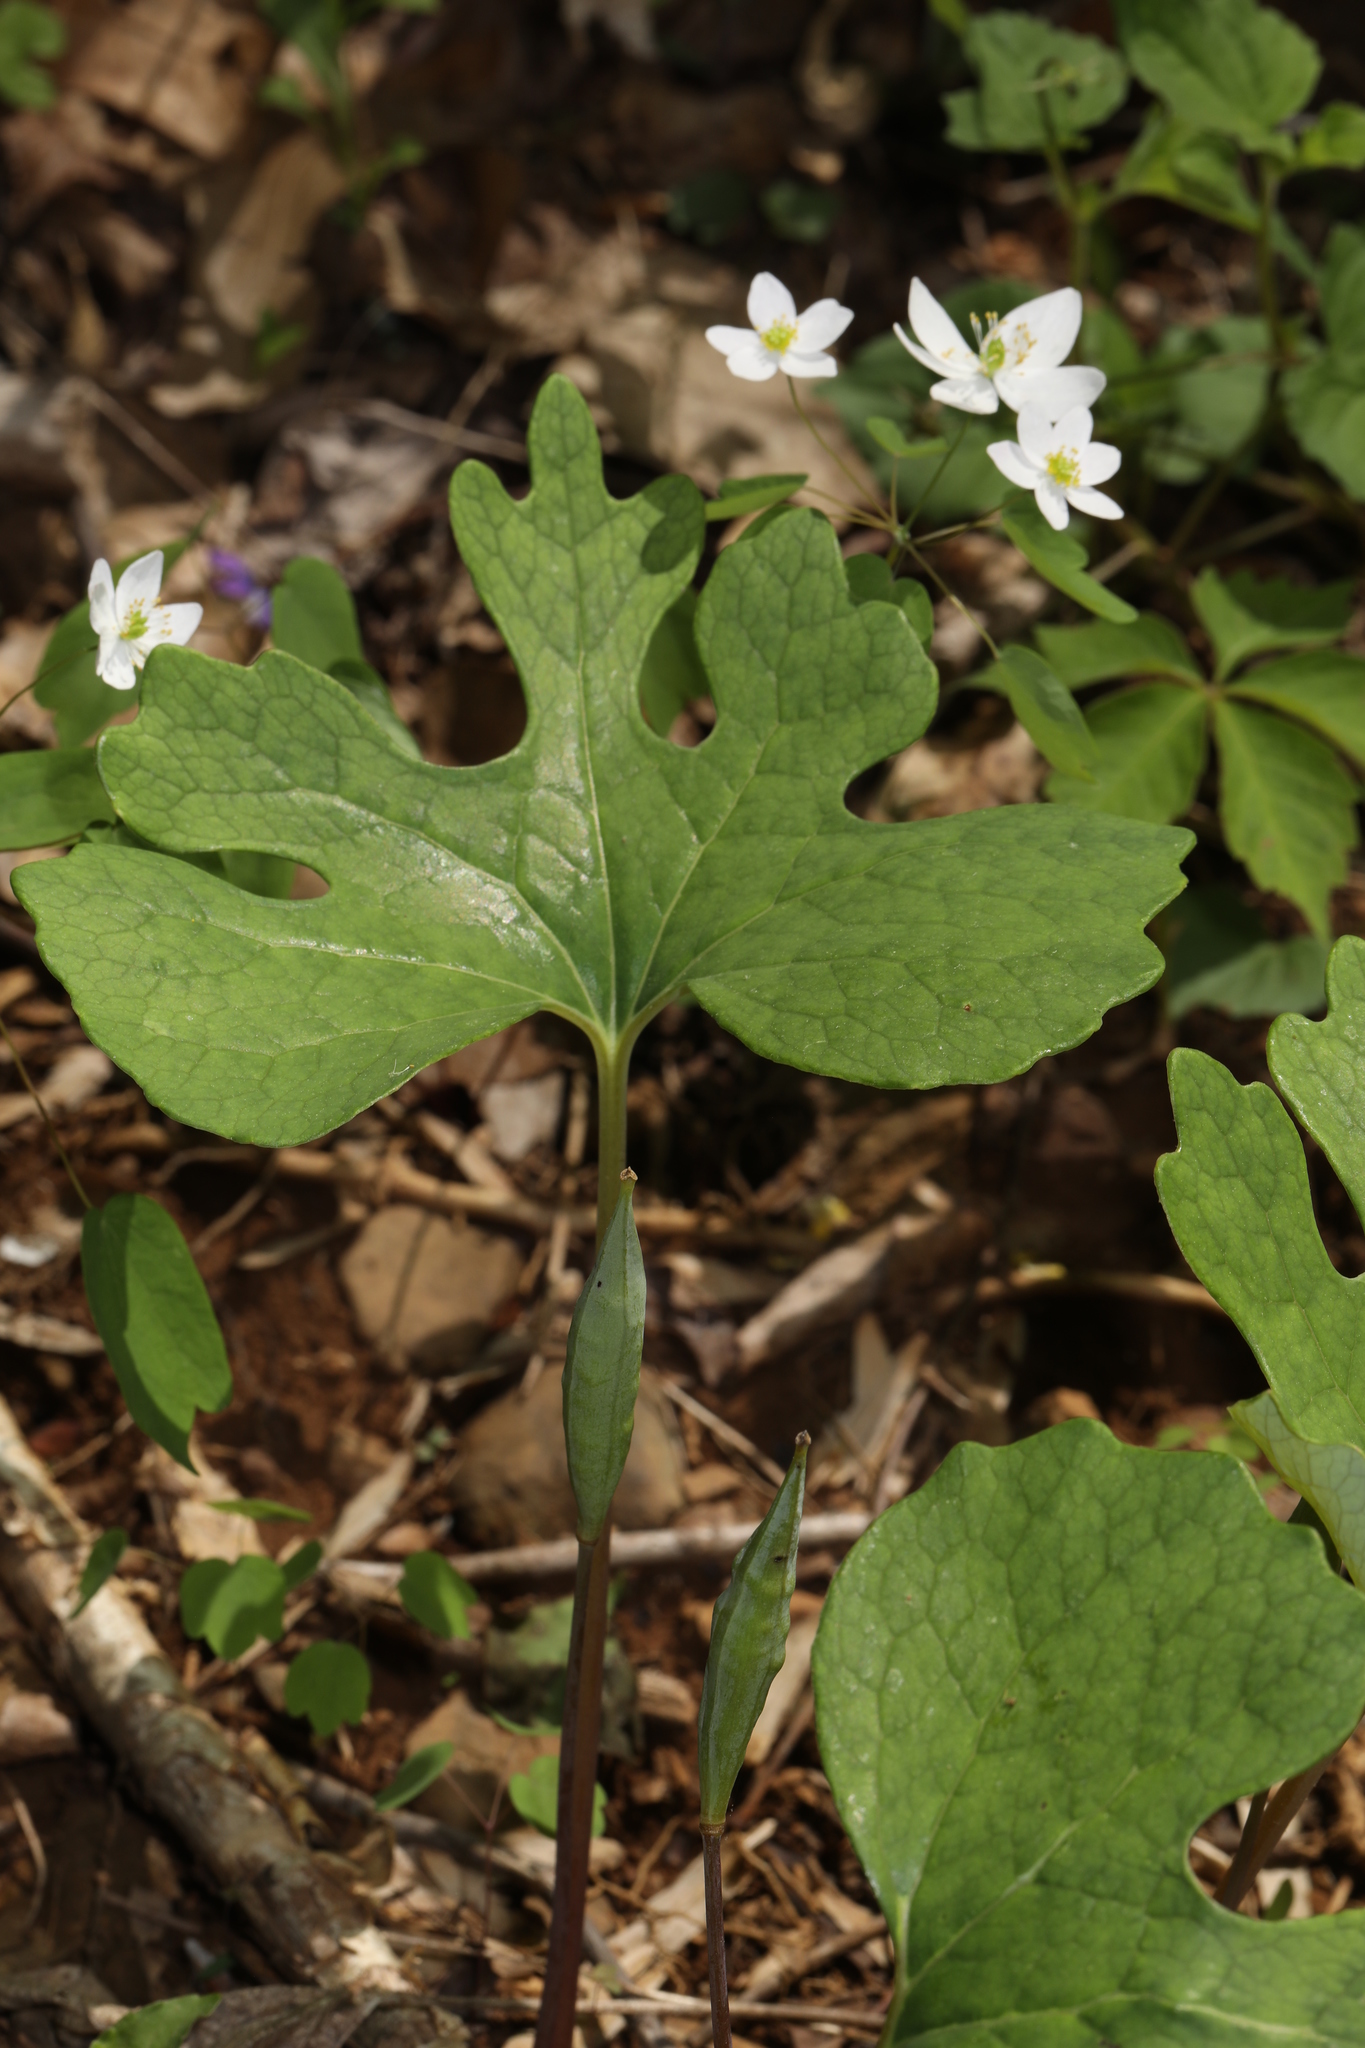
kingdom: Plantae
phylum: Tracheophyta
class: Magnoliopsida
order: Ranunculales
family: Papaveraceae
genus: Sanguinaria
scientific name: Sanguinaria canadensis
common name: Bloodroot
